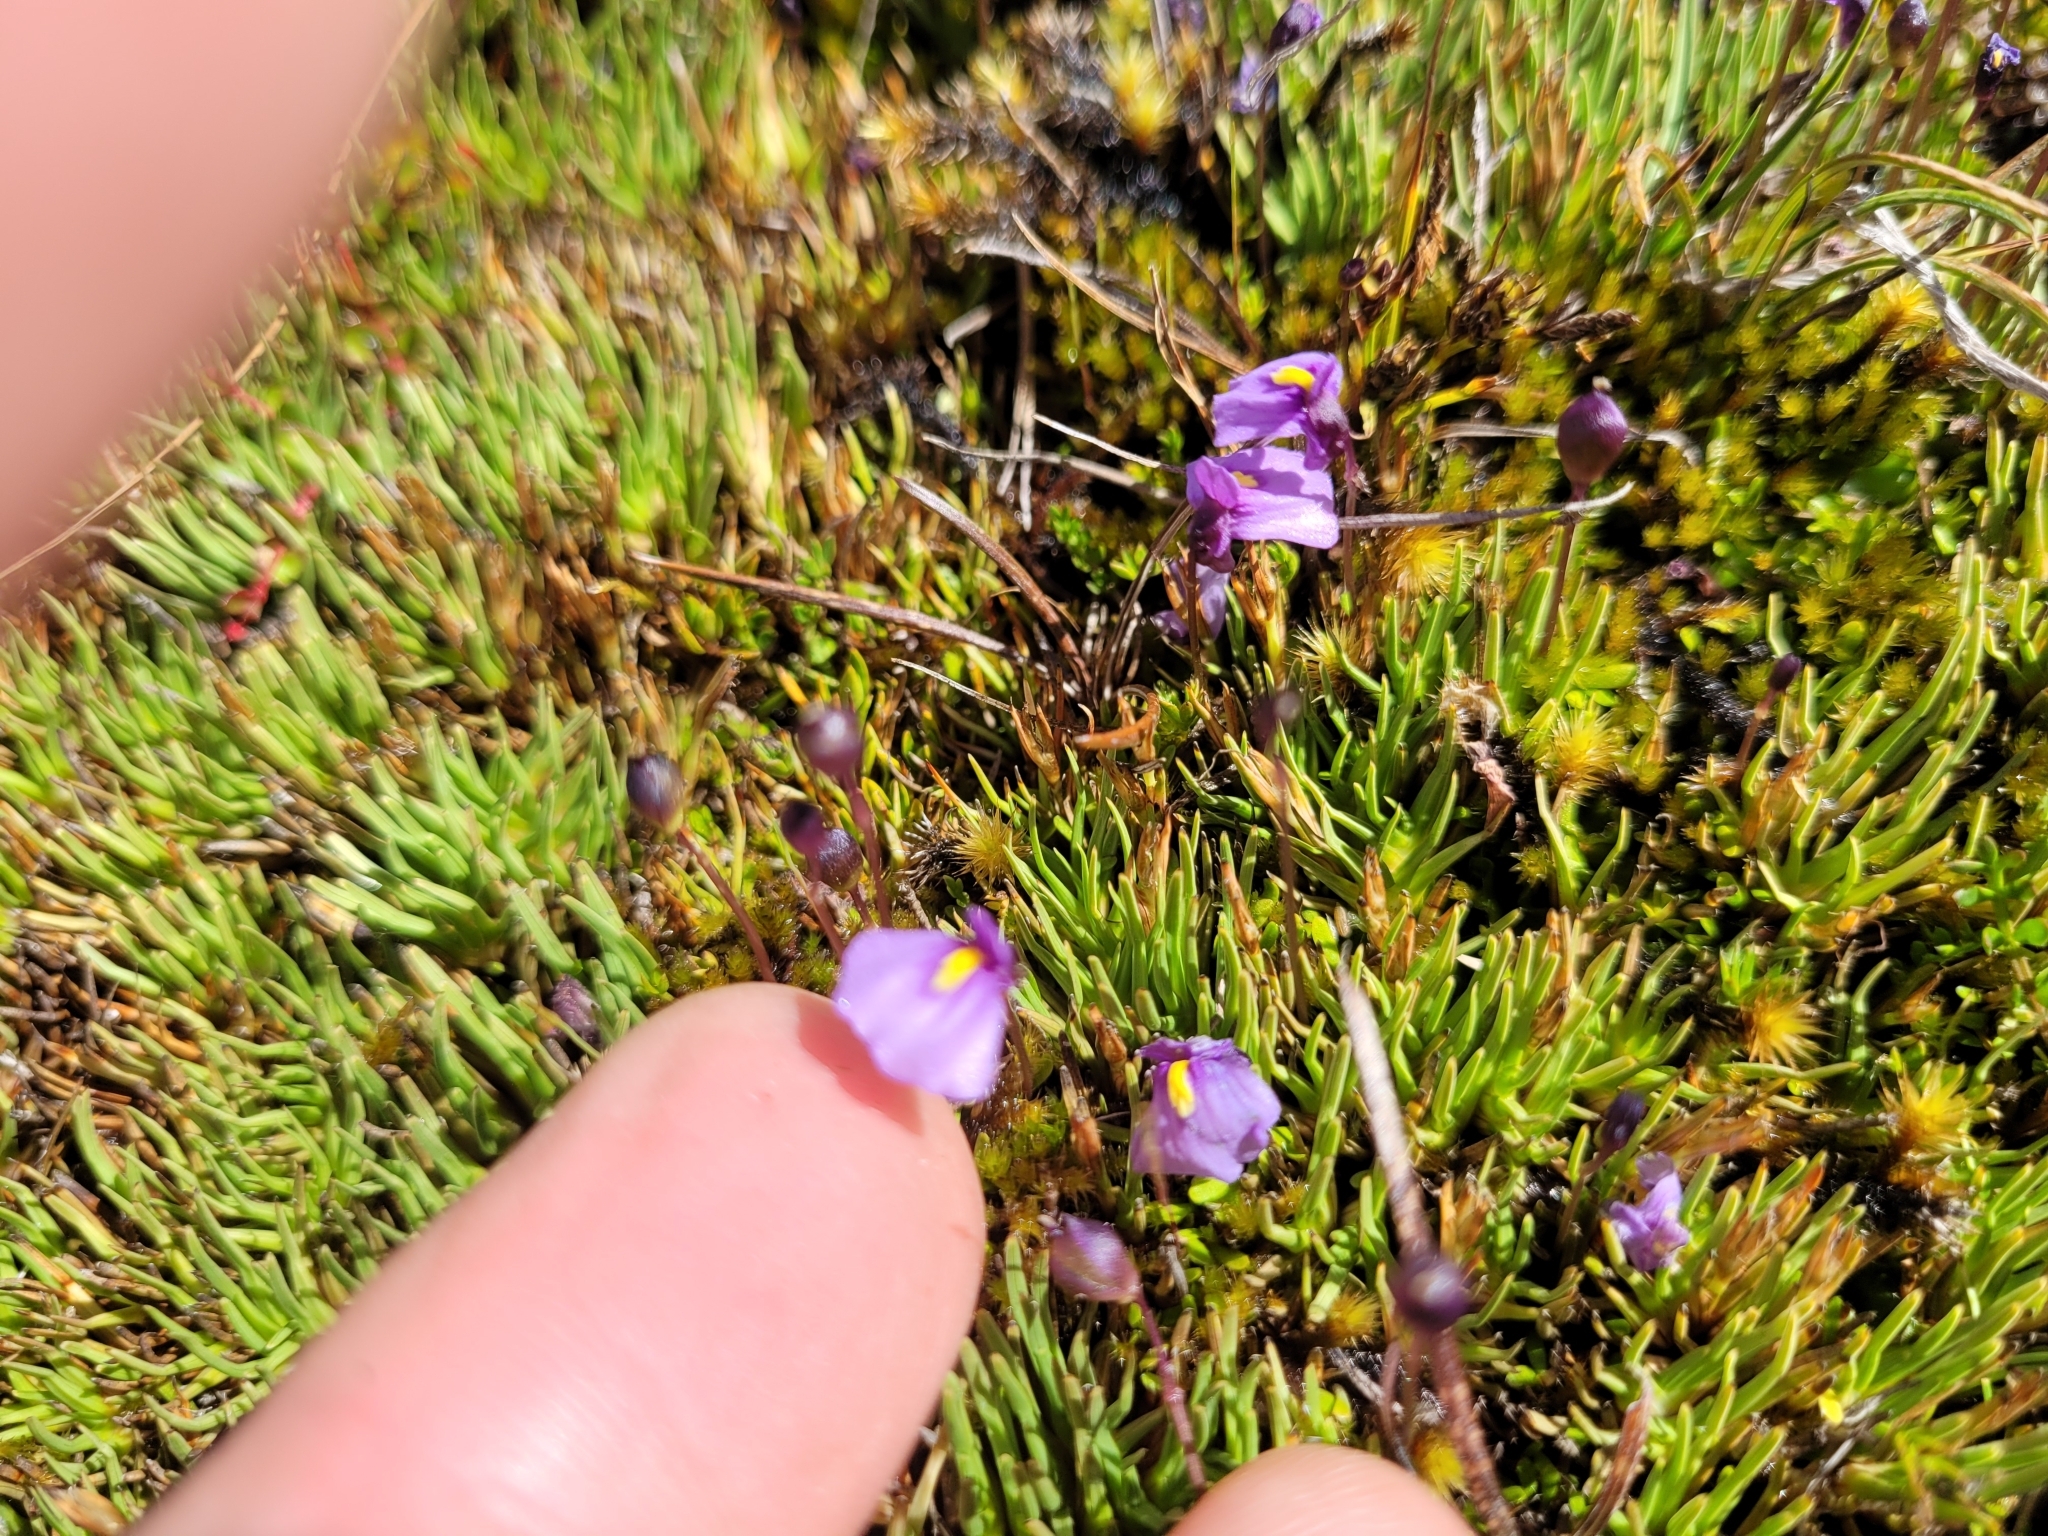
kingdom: Plantae
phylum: Tracheophyta
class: Magnoliopsida
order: Lamiales
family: Lentibulariaceae
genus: Utricularia
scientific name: Utricularia dichotoma
